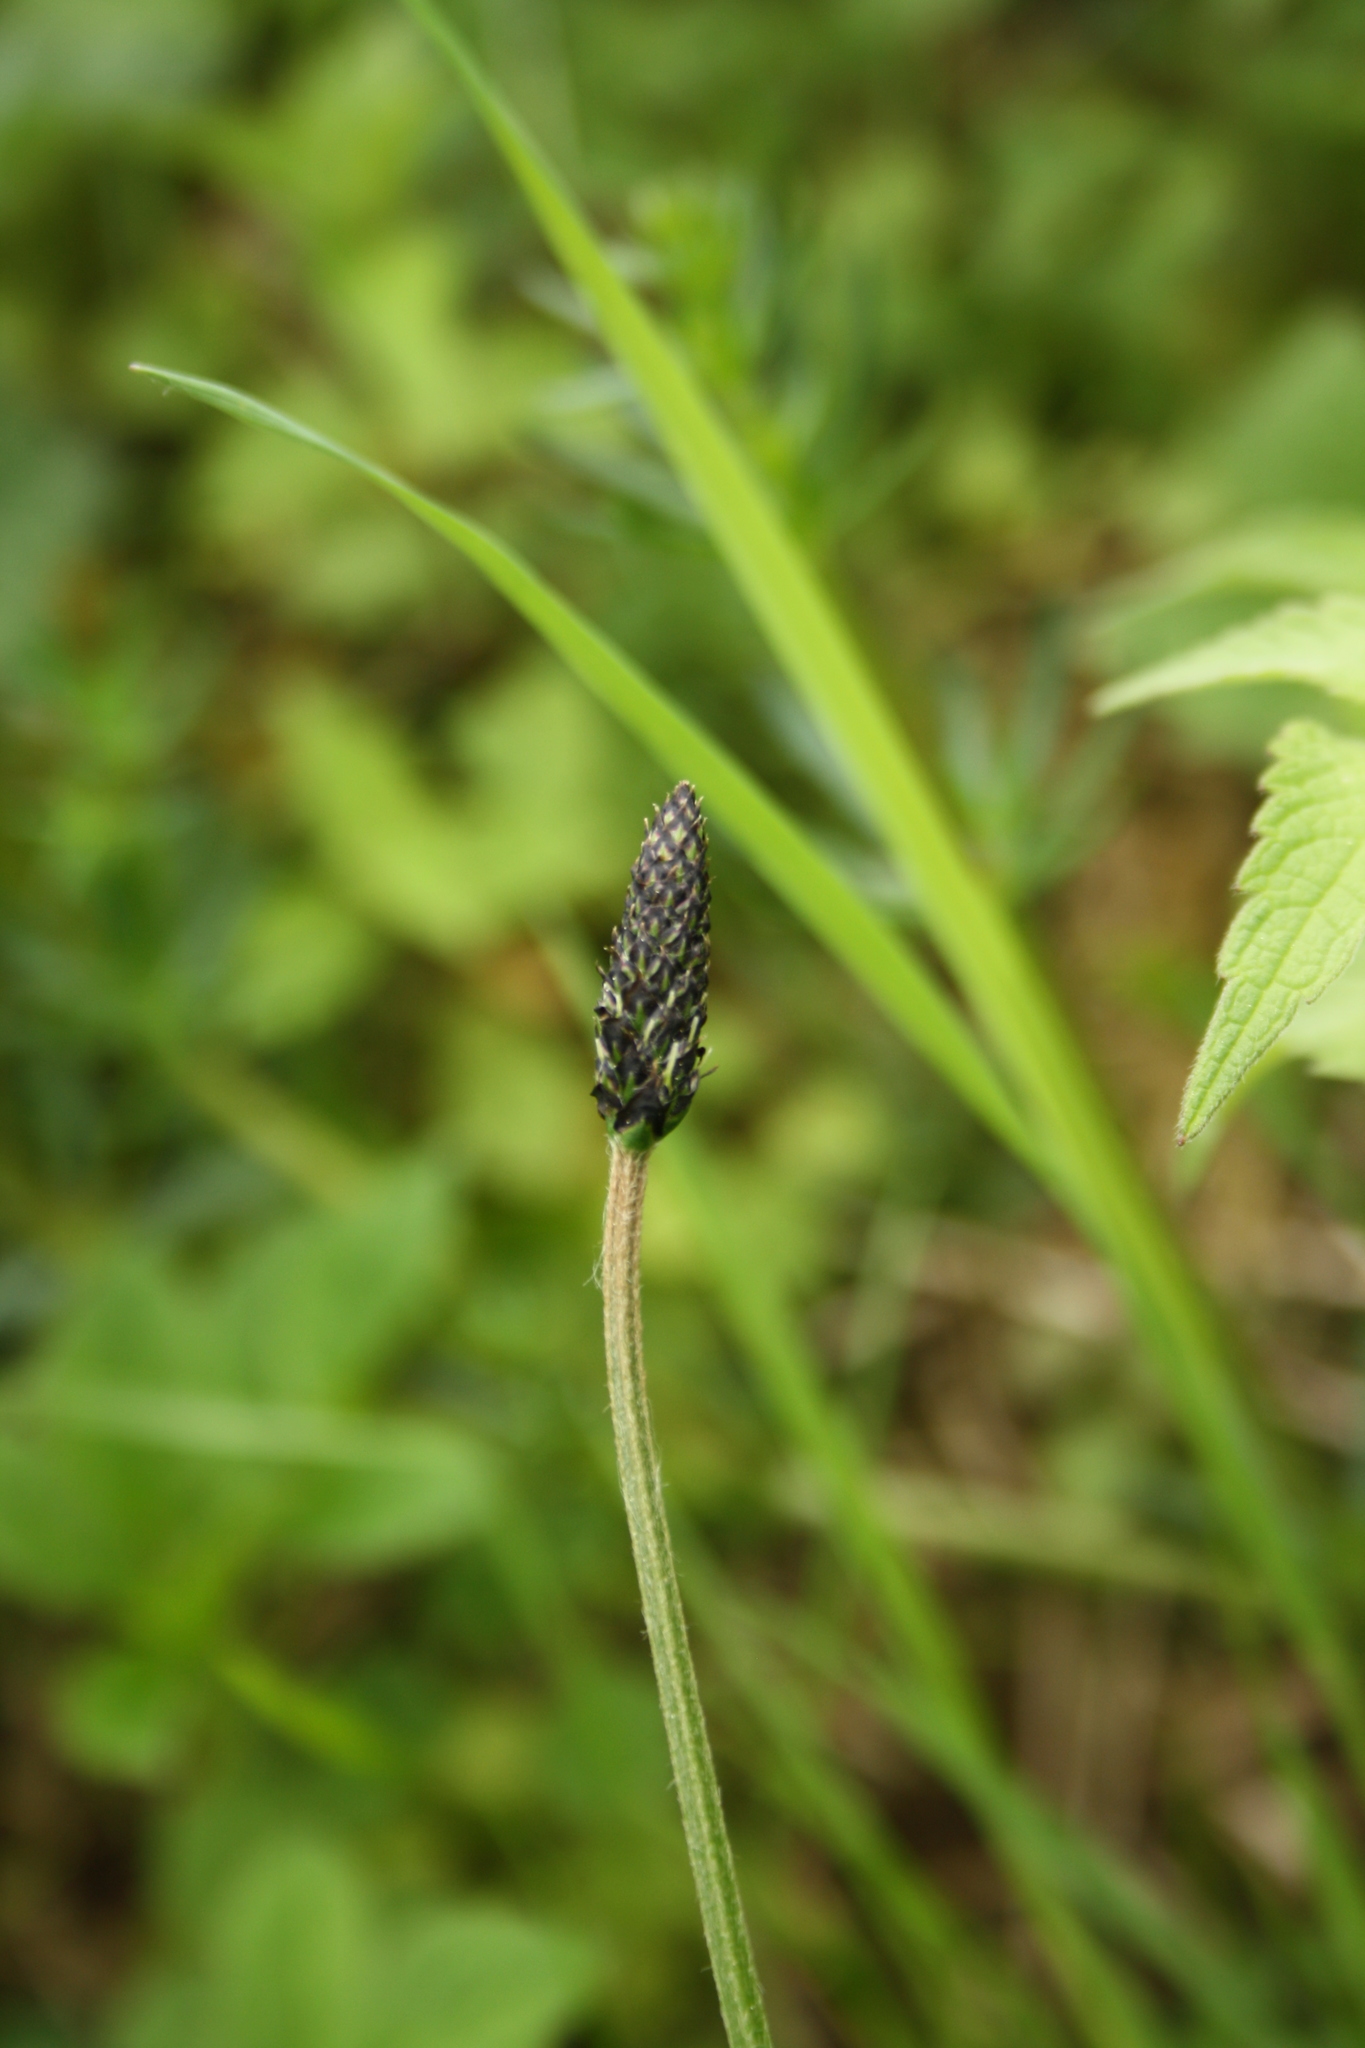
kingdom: Plantae
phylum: Tracheophyta
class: Magnoliopsida
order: Lamiales
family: Plantaginaceae
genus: Plantago
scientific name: Plantago lanceolata
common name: Ribwort plantain
